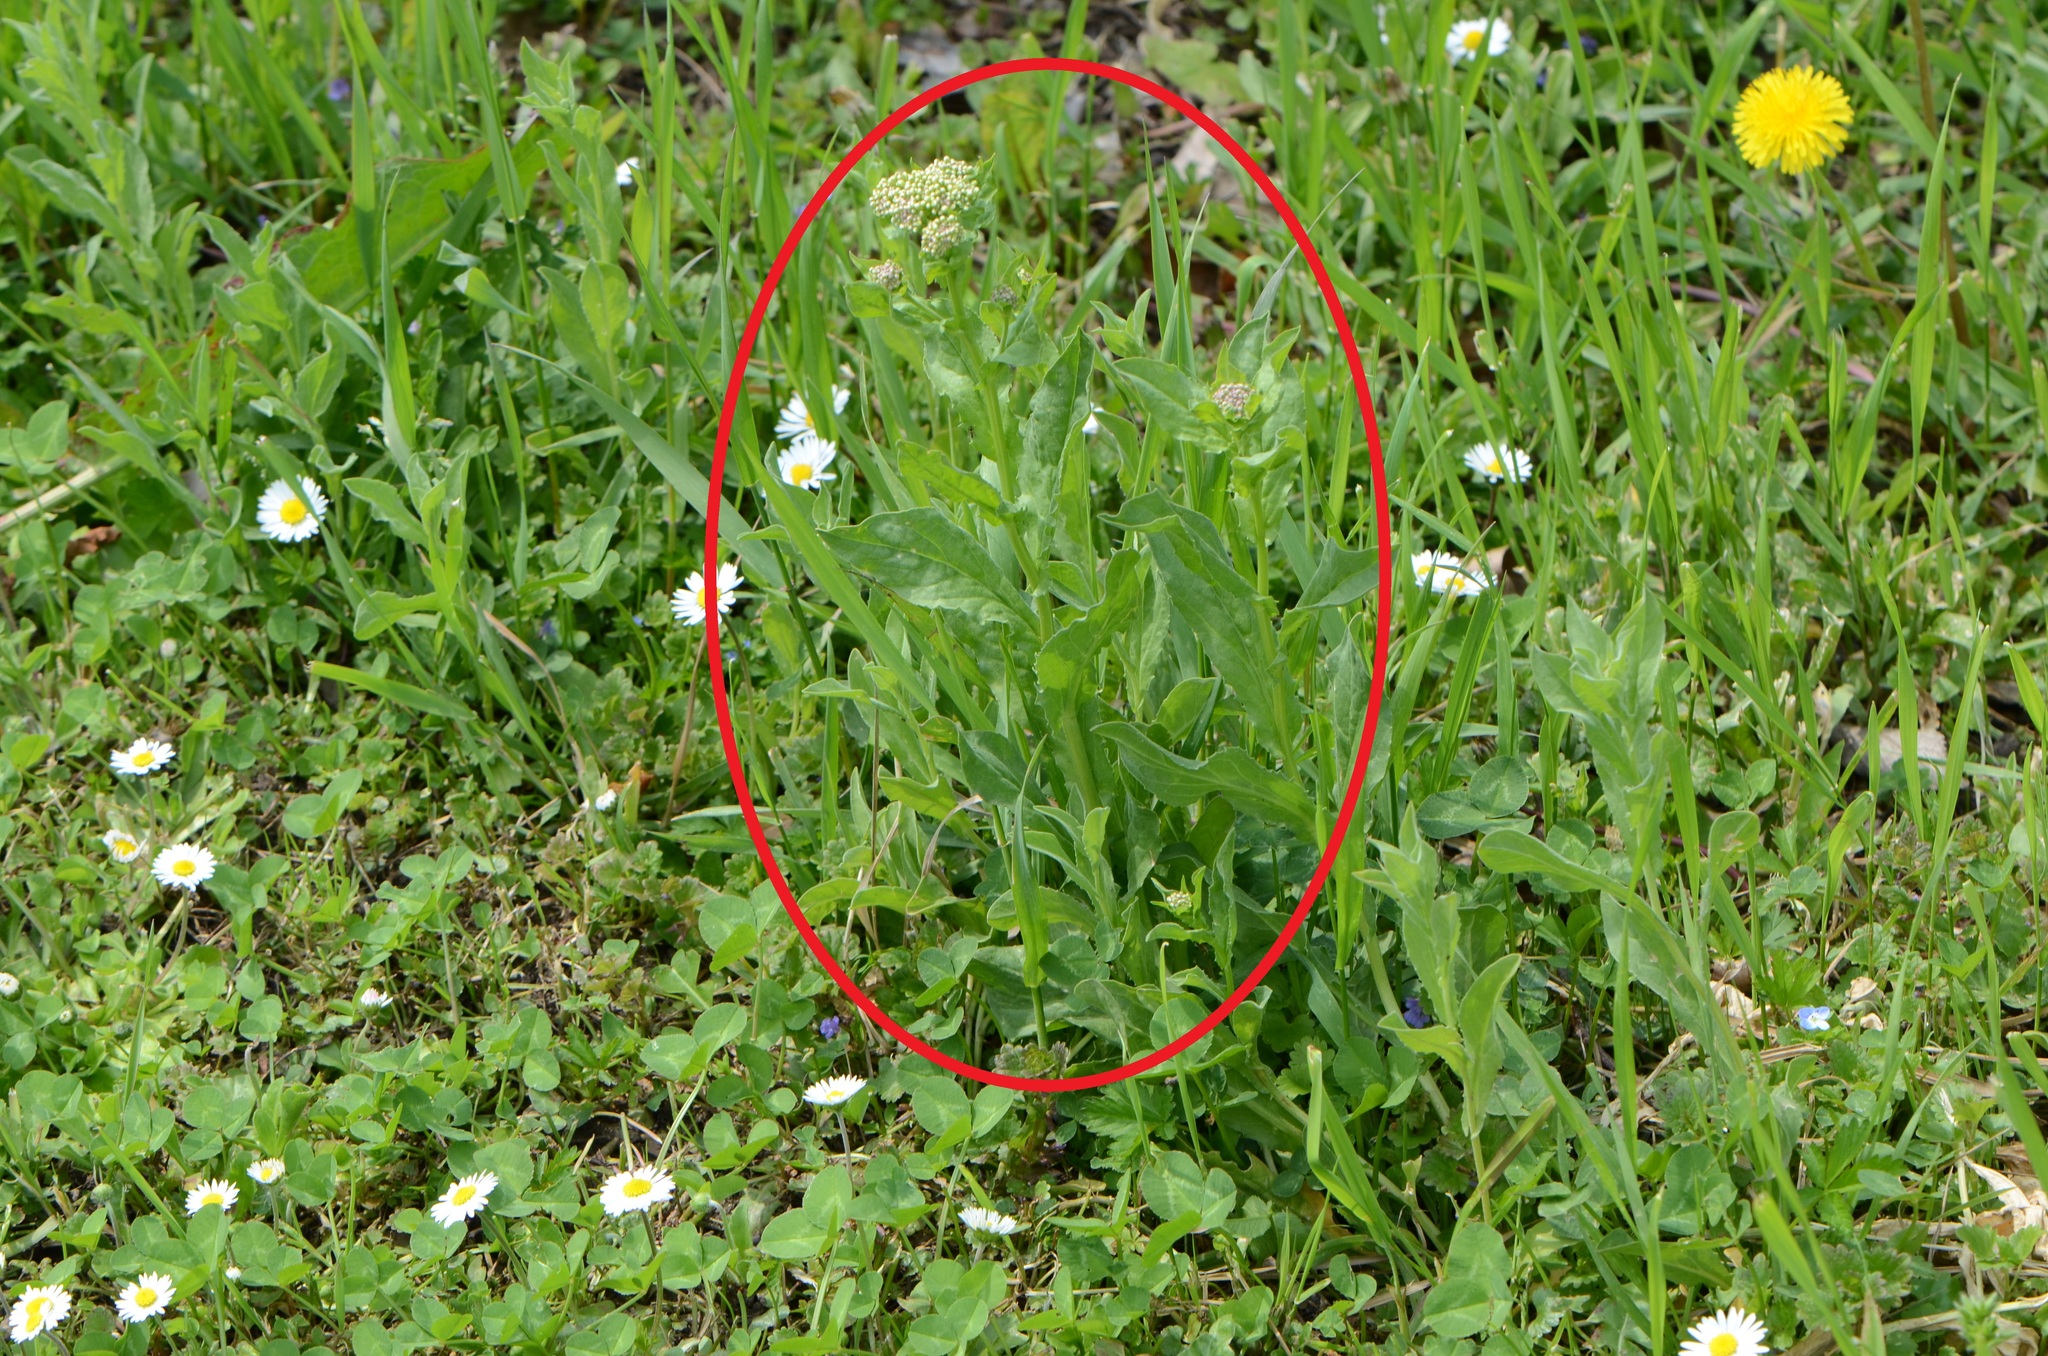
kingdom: Plantae
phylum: Tracheophyta
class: Magnoliopsida
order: Brassicales
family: Brassicaceae
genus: Lepidium
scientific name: Lepidium draba
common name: Hoary cress
